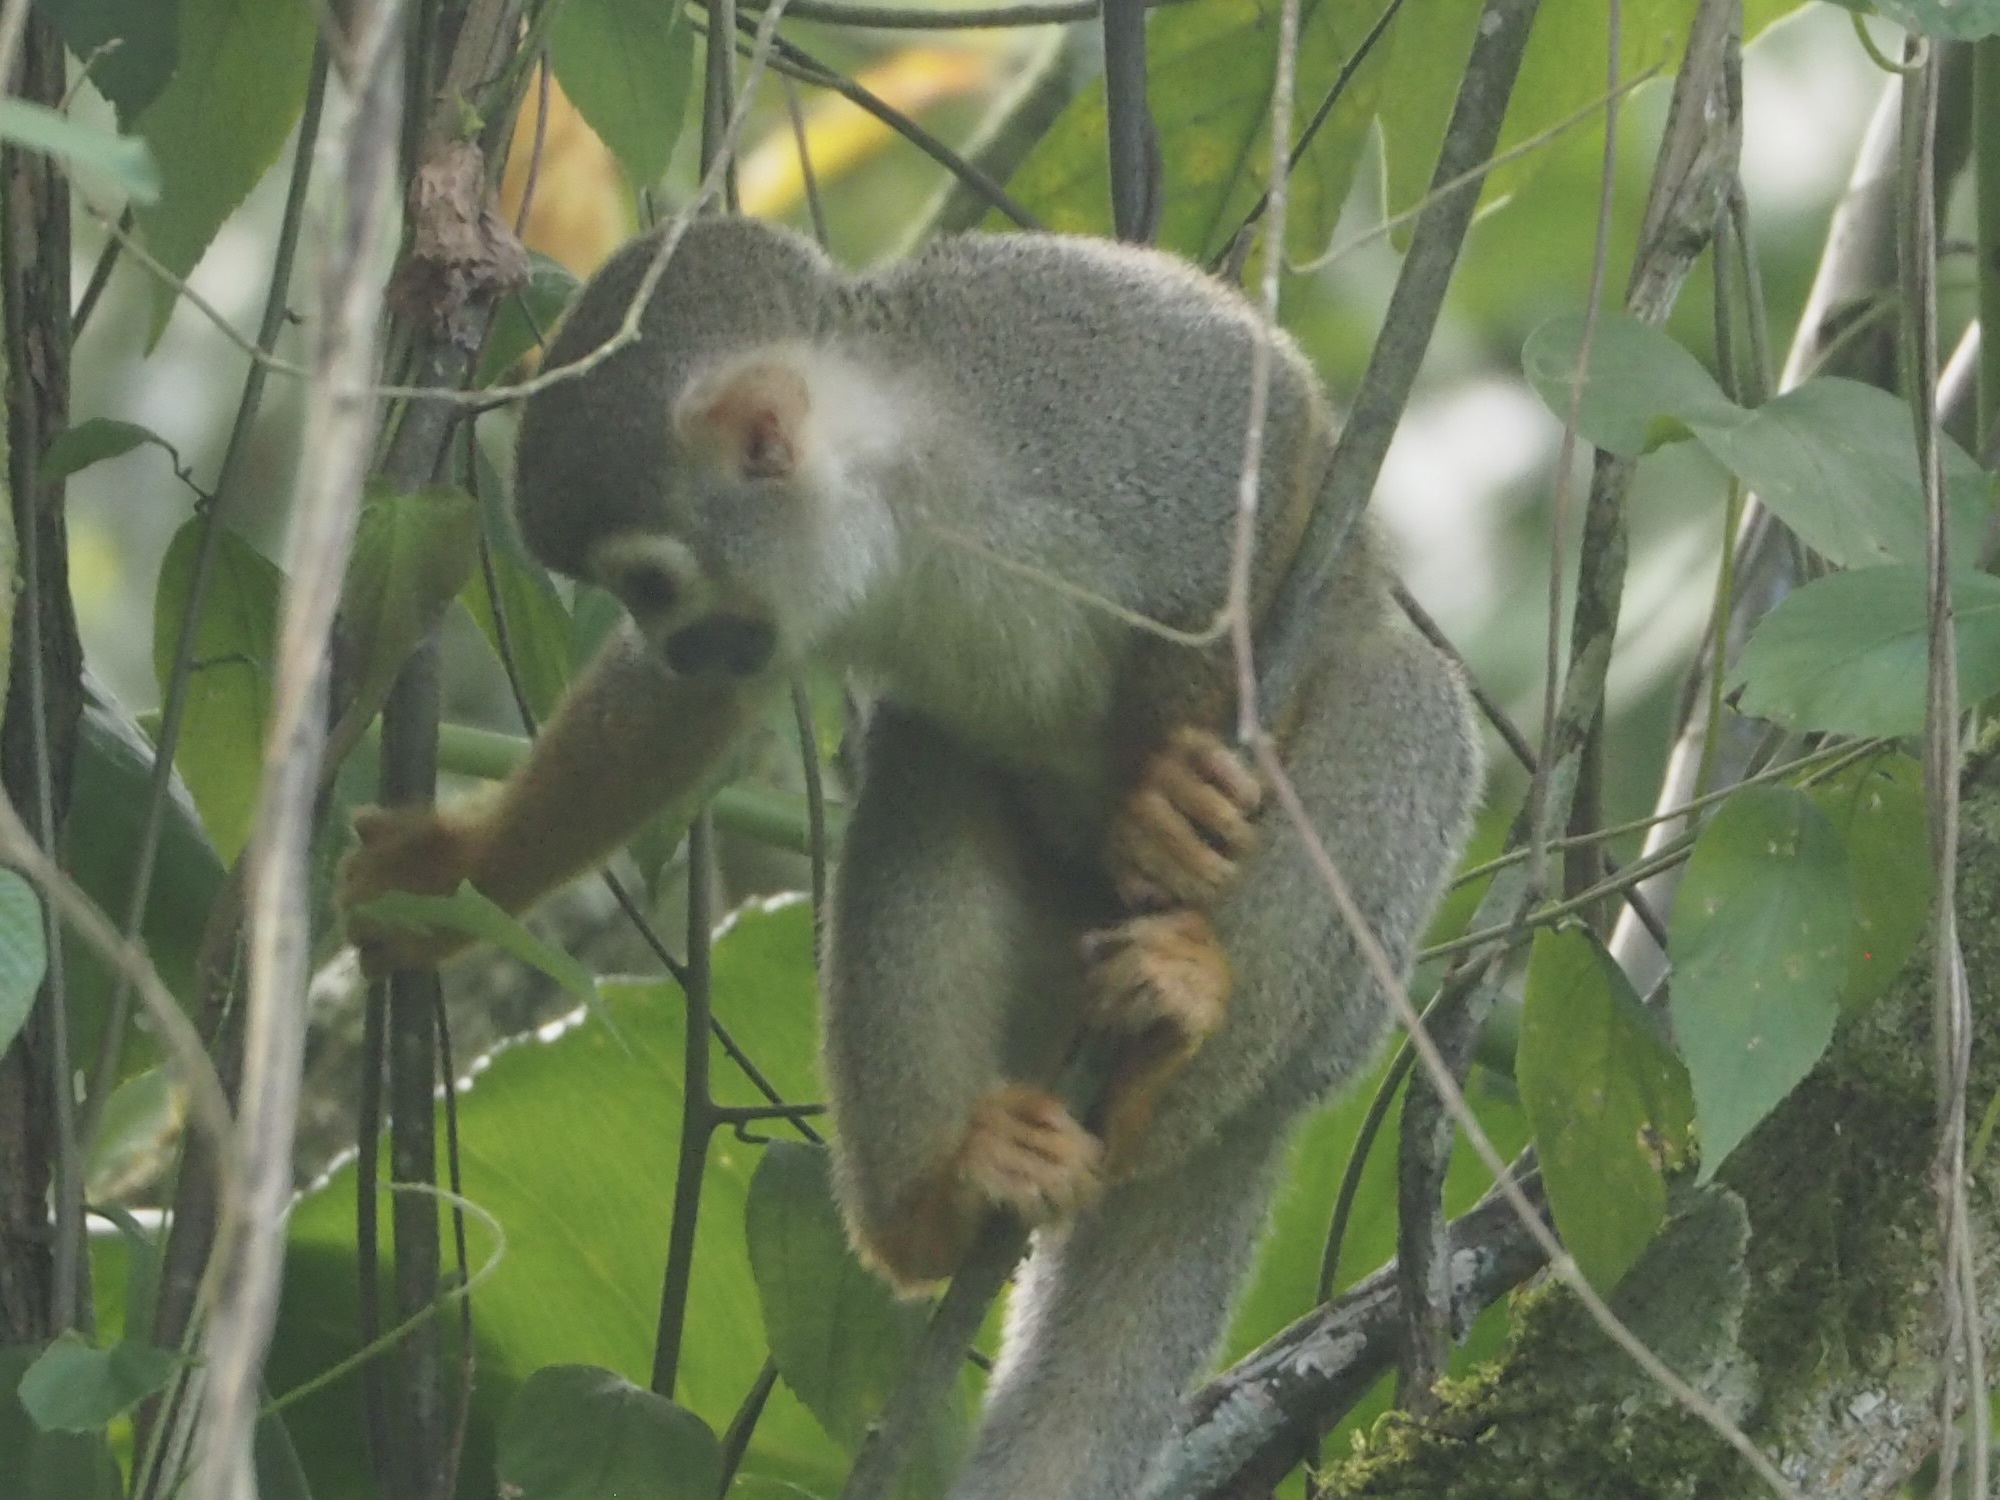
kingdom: Animalia
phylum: Chordata
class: Mammalia
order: Primates
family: Cebidae
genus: Saimiri
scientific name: Saimiri sciureus
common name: Common squirrel monkey
